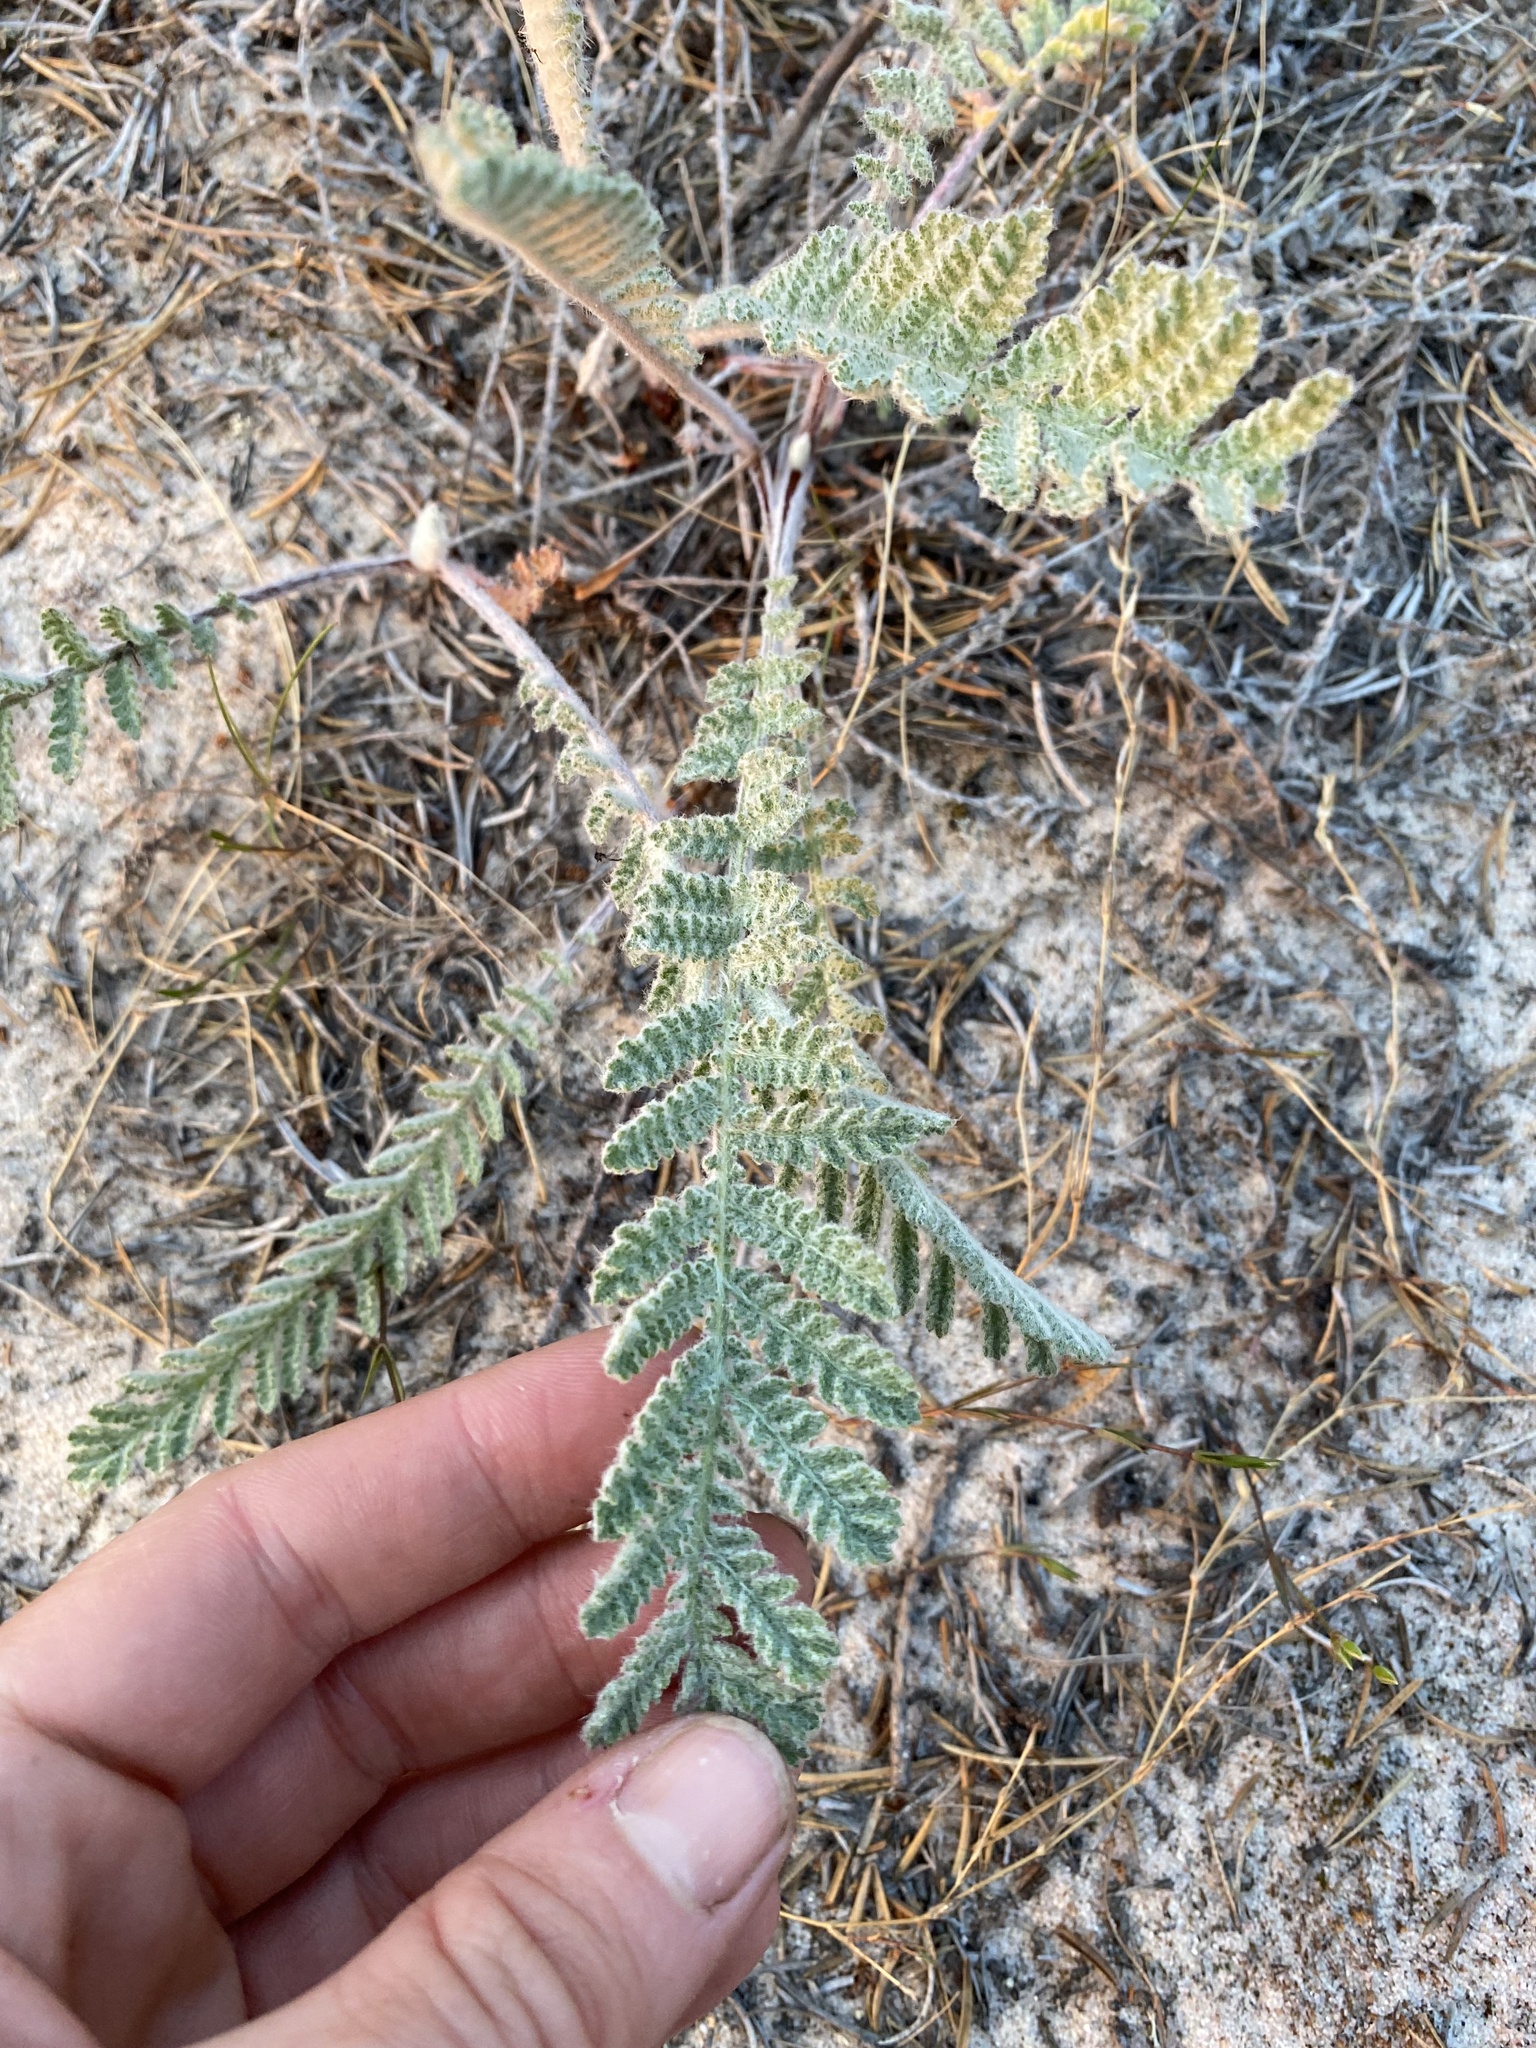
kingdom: Plantae
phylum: Tracheophyta
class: Magnoliopsida
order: Asterales
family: Asteraceae
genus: Tanacetum
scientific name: Tanacetum bipinnatum
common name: Dwarf tansy
